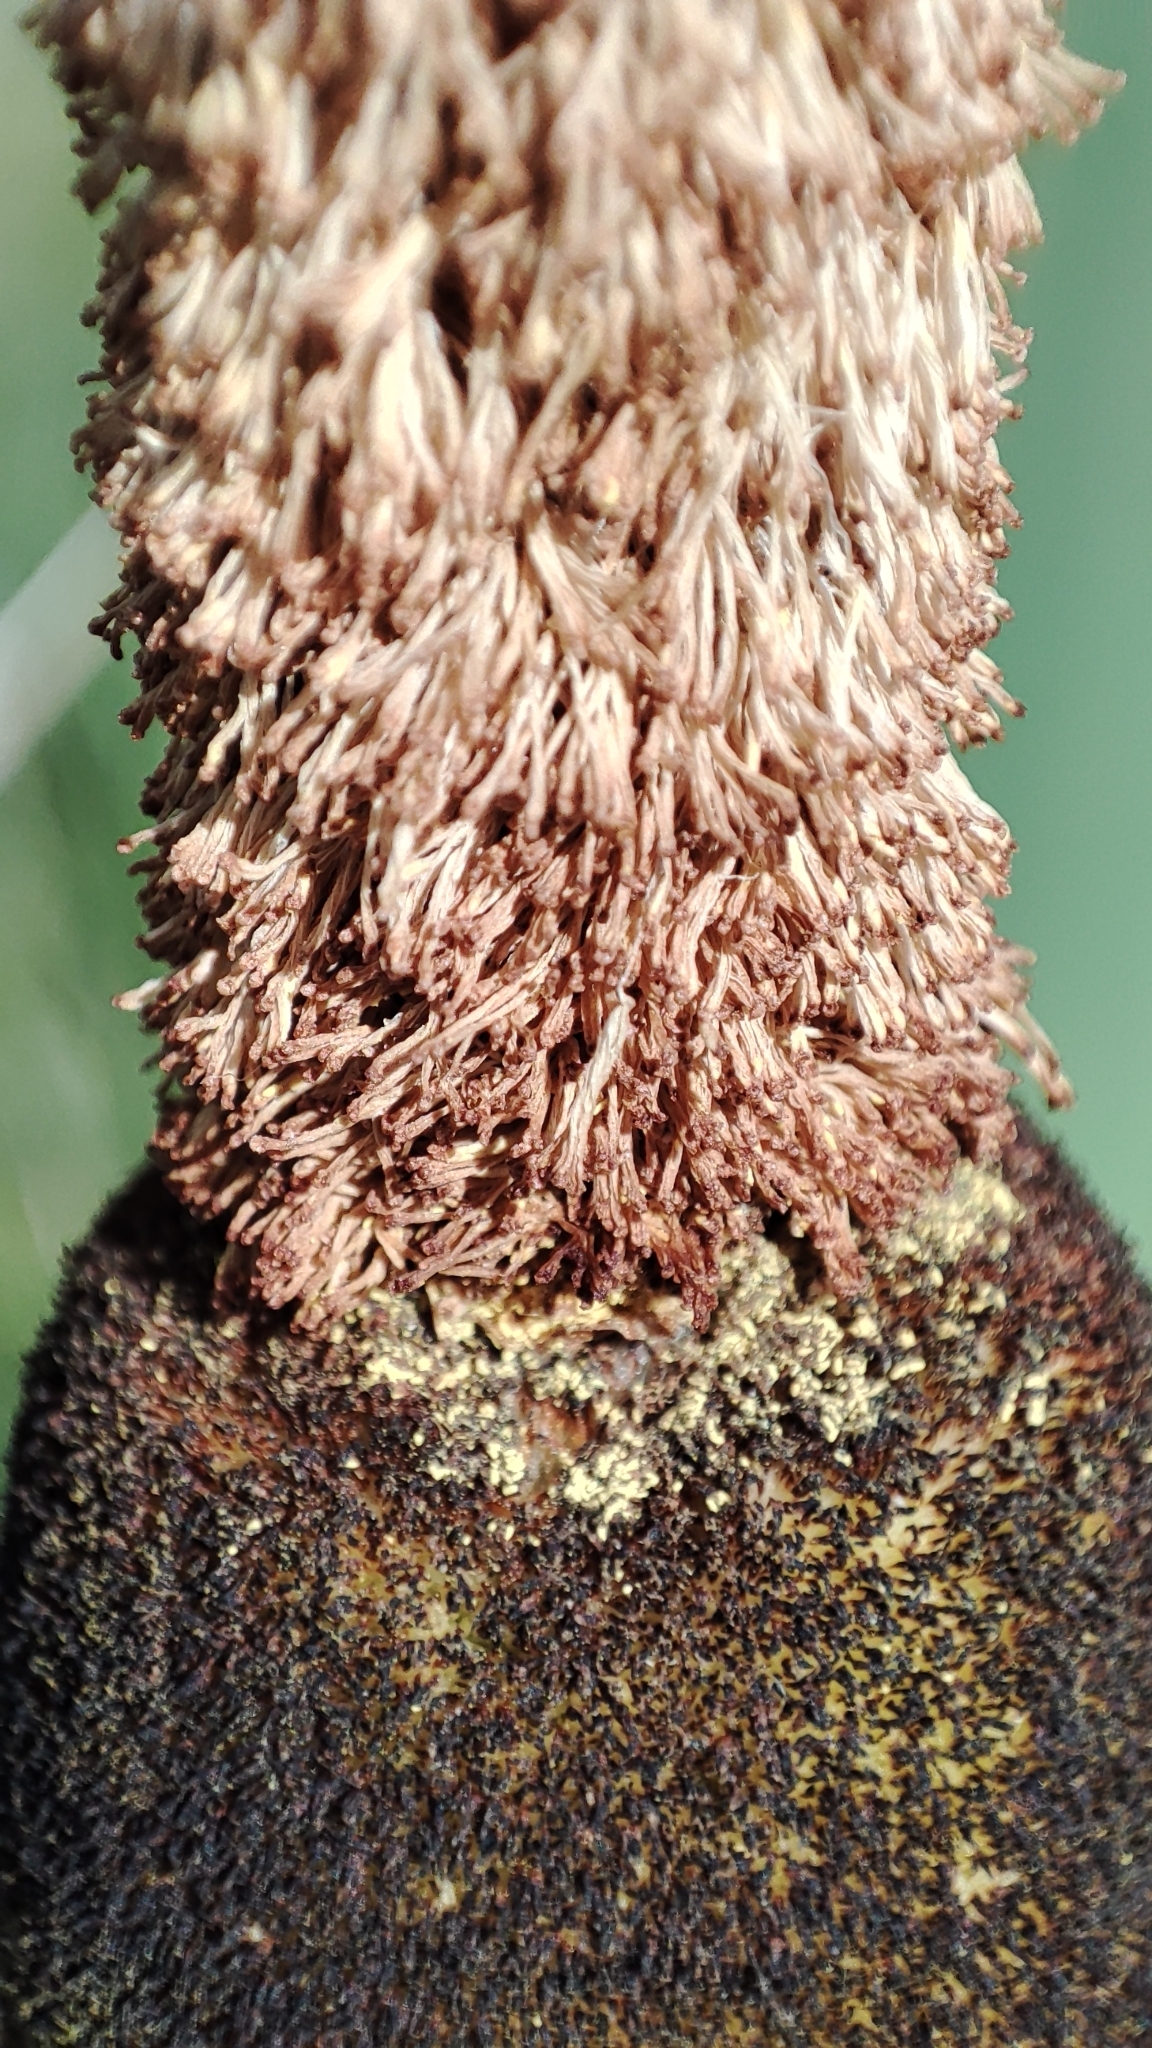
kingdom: Plantae
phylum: Tracheophyta
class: Liliopsida
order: Poales
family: Typhaceae
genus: Typha
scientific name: Typha latifolia
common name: Broadleaf cattail
